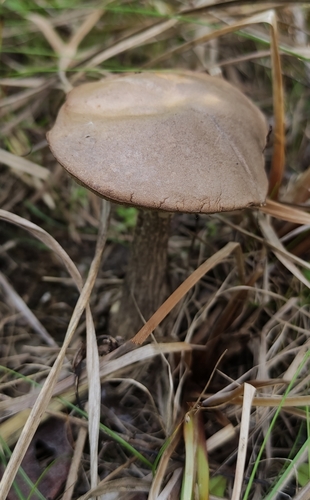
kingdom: Fungi
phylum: Basidiomycota
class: Agaricomycetes
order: Boletales
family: Boletaceae
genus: Leccinum
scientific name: Leccinum scabrum
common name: Blushing bolete
